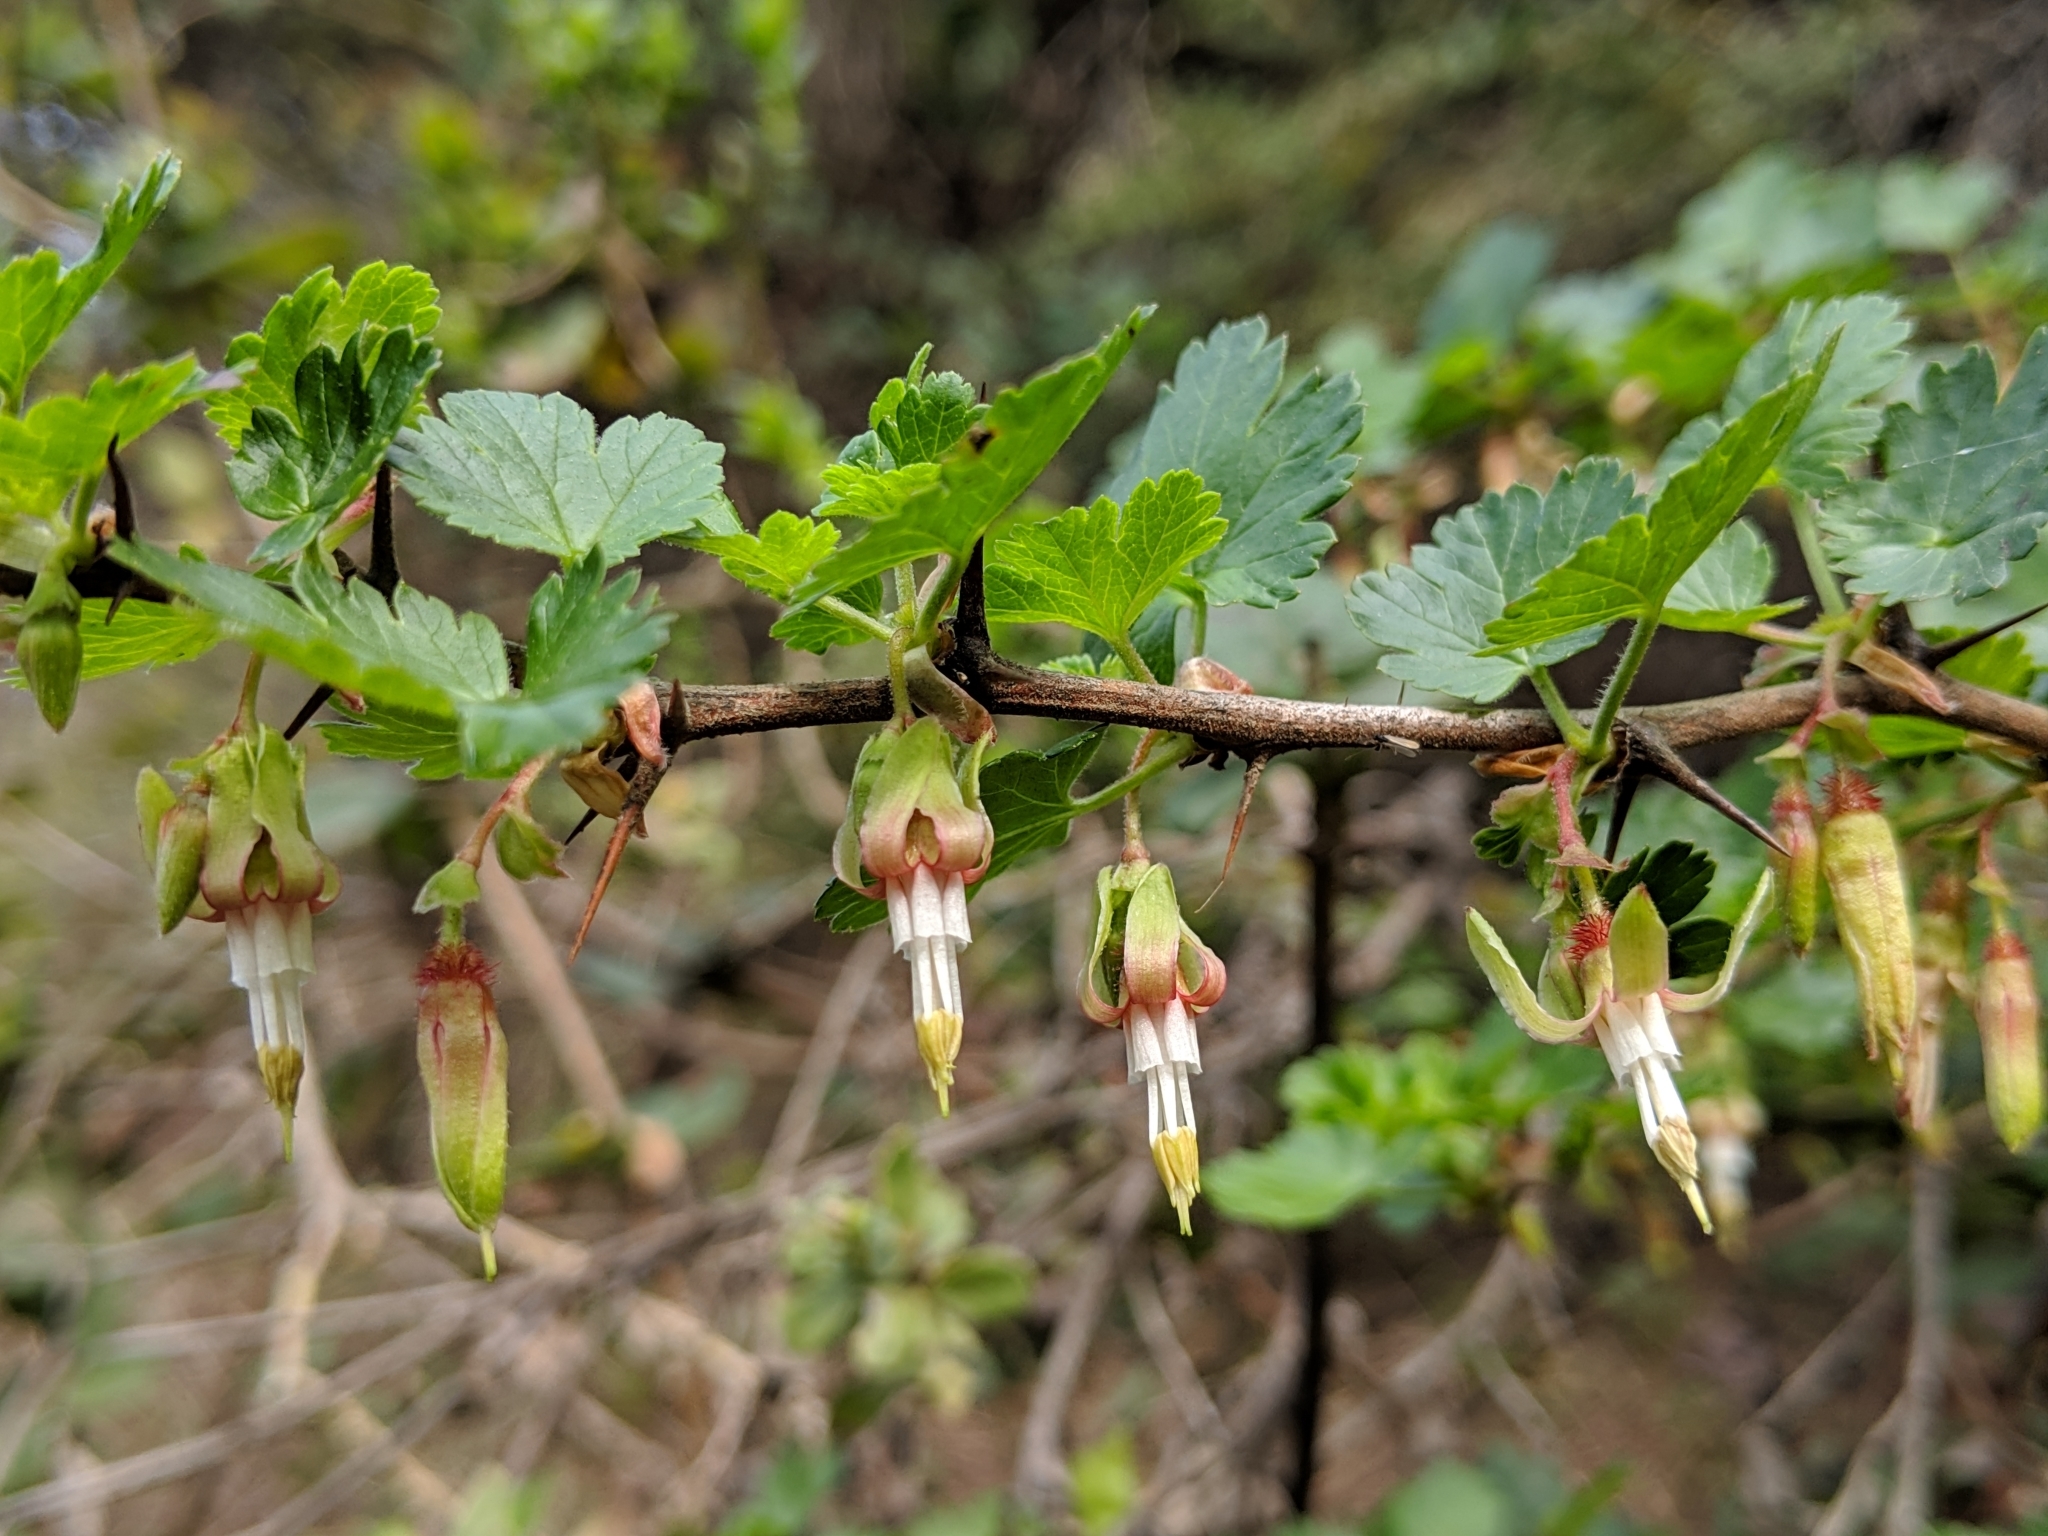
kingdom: Plantae
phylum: Tracheophyta
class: Magnoliopsida
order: Saxifragales
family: Grossulariaceae
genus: Ribes
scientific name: Ribes californicum
